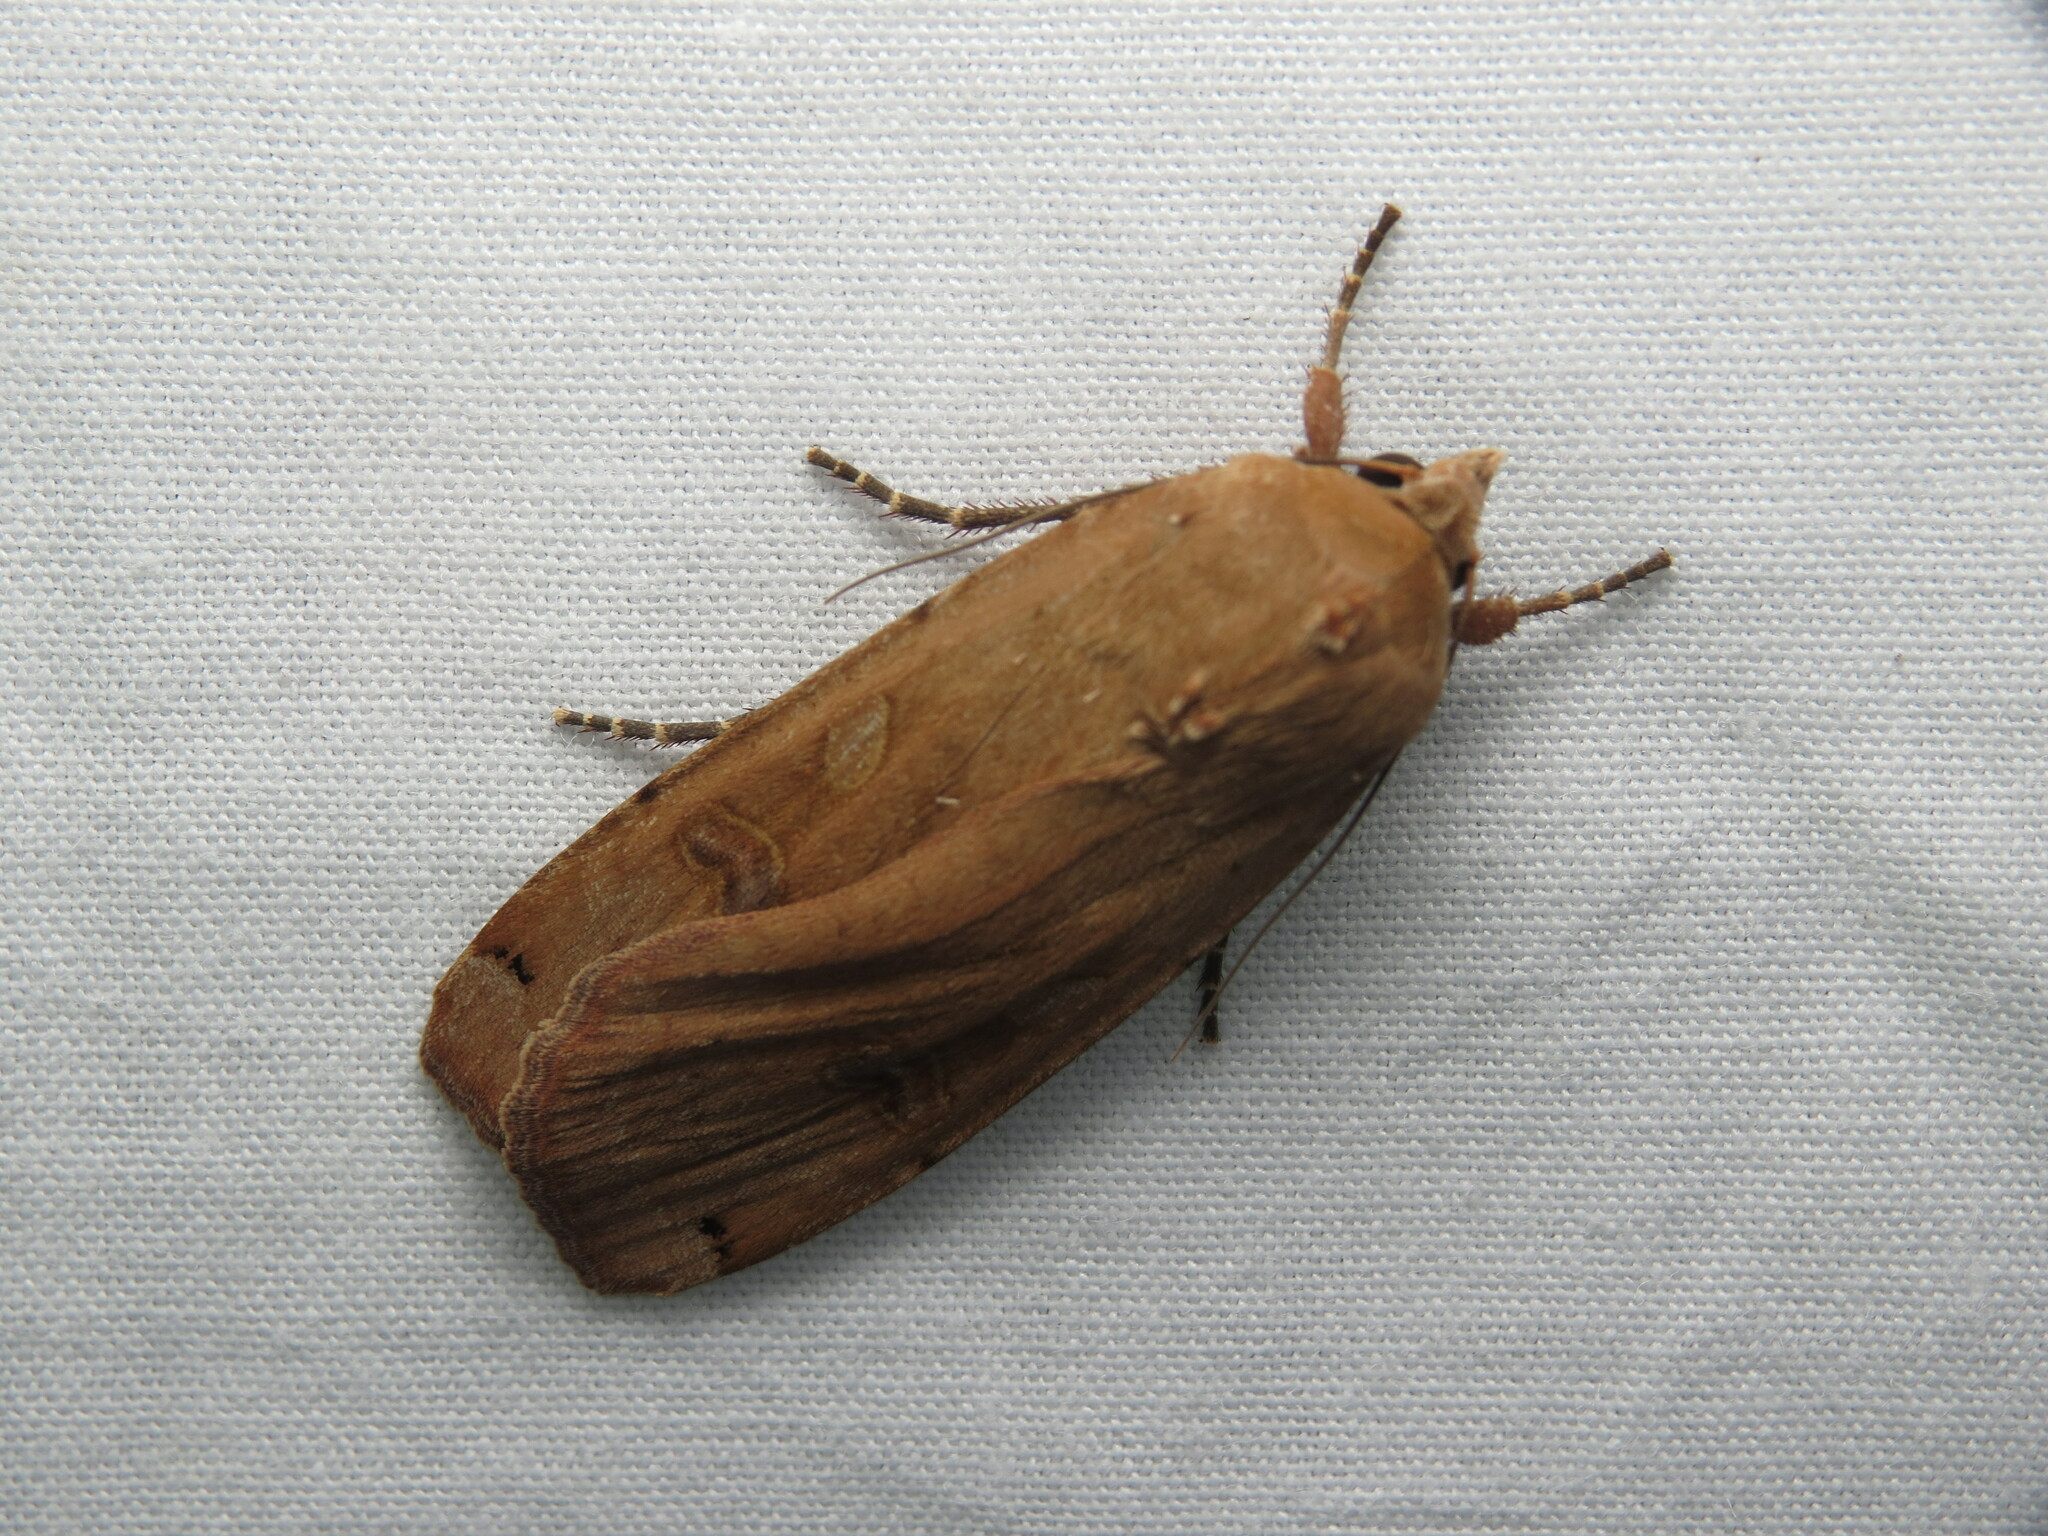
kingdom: Animalia
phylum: Arthropoda
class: Insecta
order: Lepidoptera
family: Noctuidae
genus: Noctua
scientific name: Noctua pronuba
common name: Large yellow underwing
